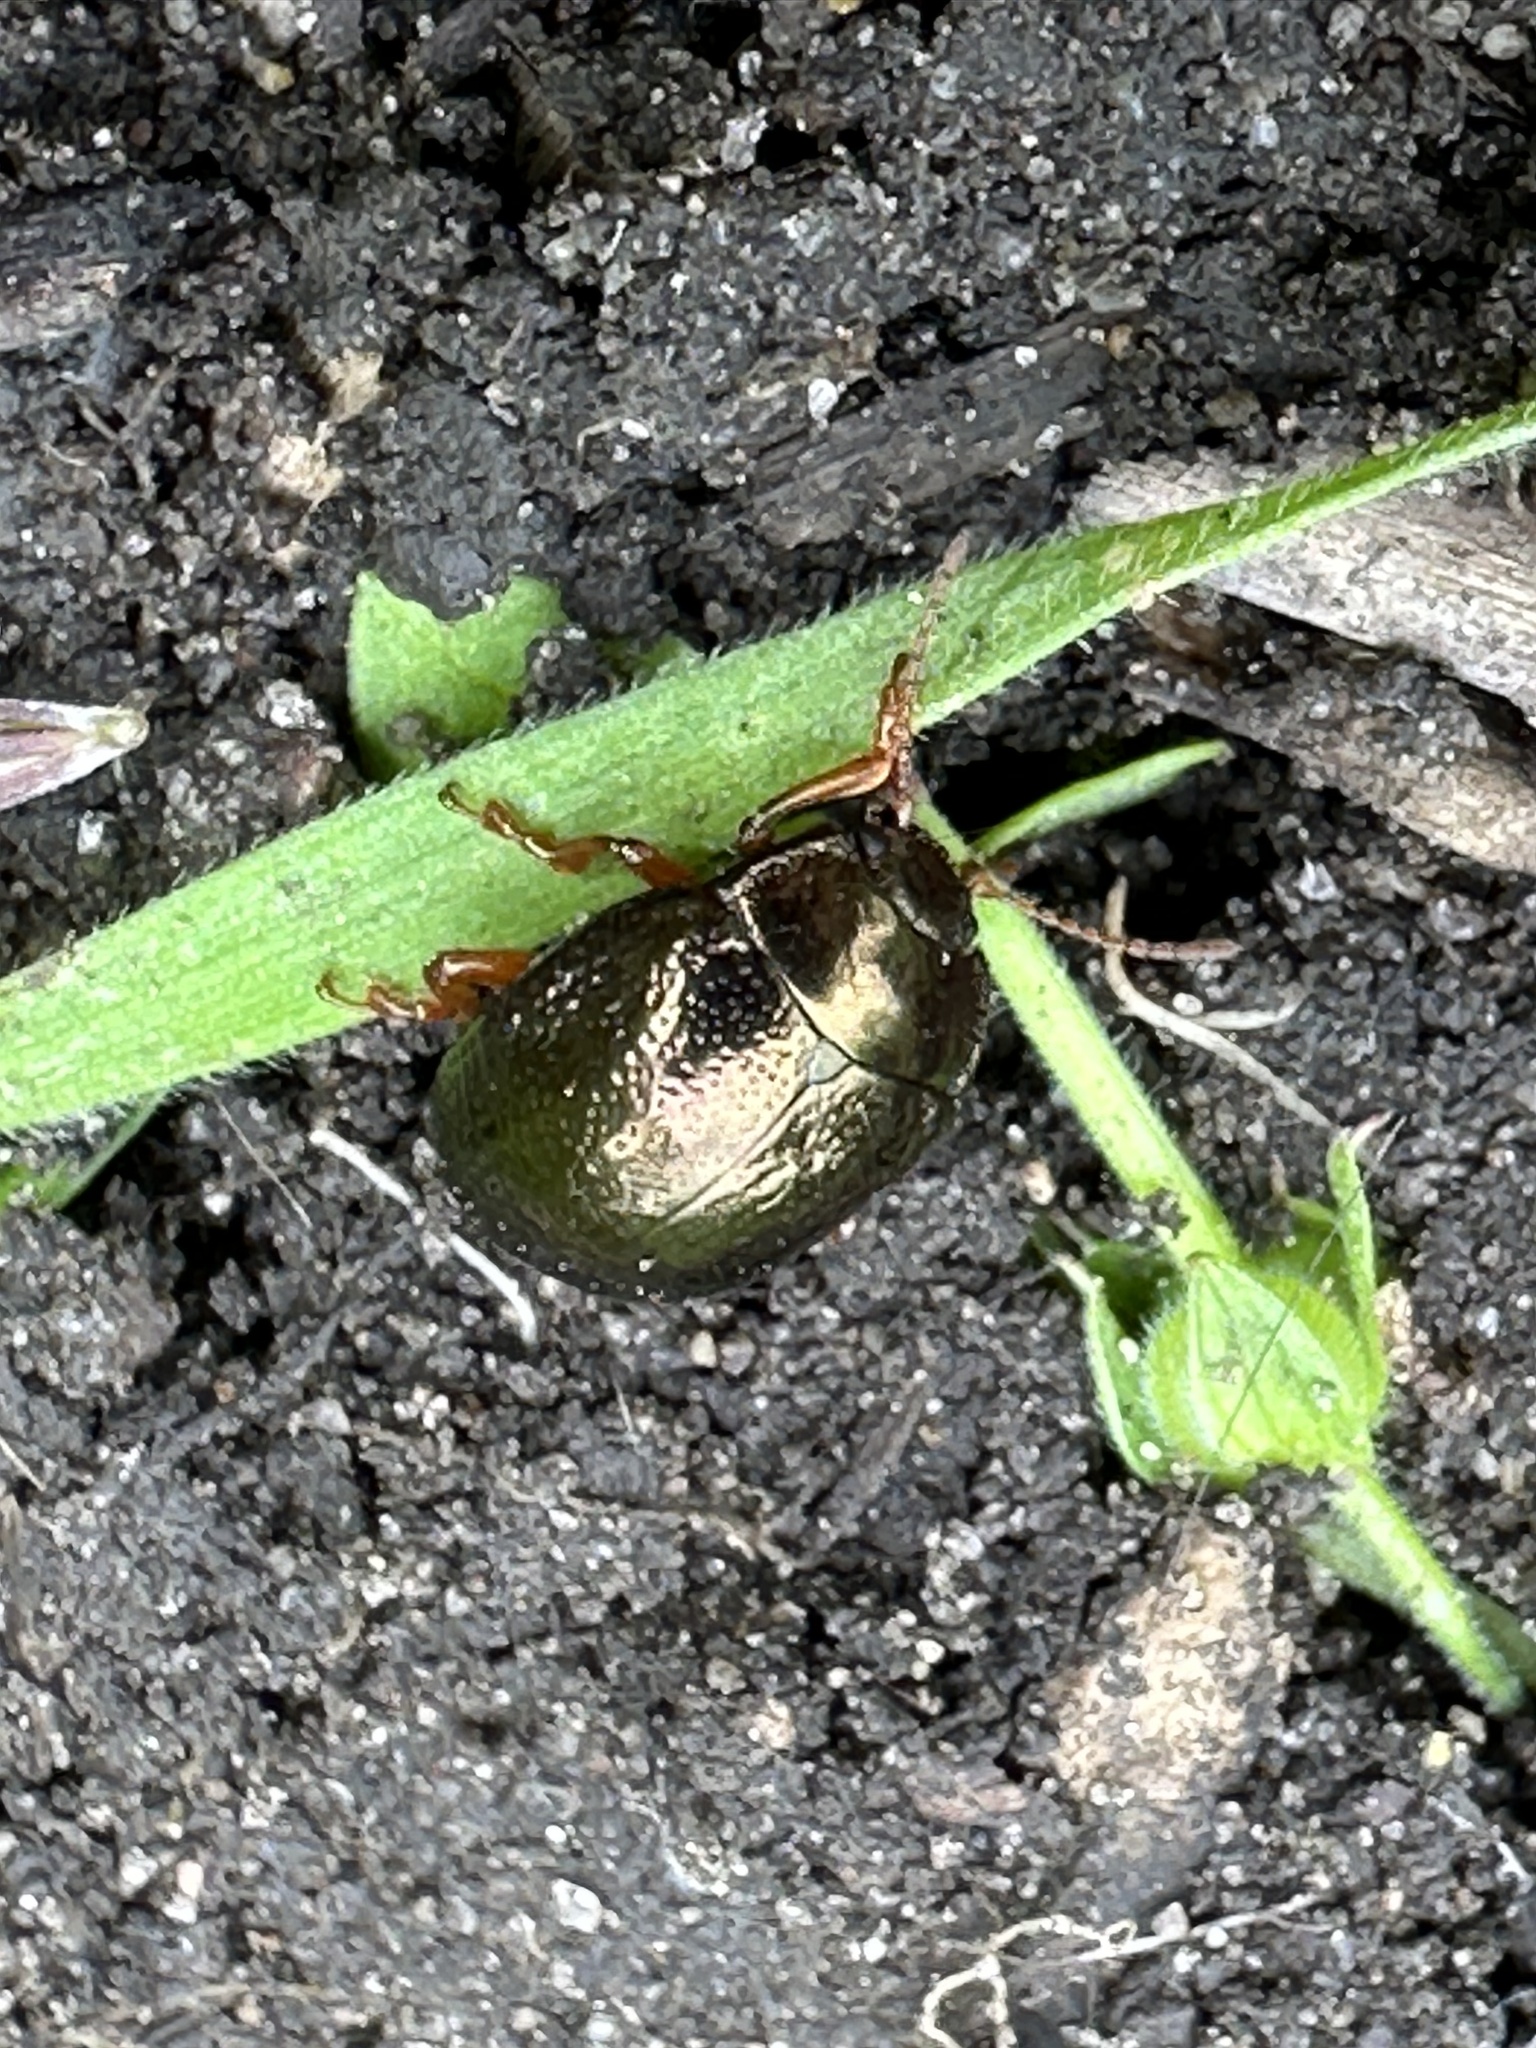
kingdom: Animalia
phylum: Arthropoda
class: Insecta
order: Coleoptera
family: Chrysomelidae
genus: Chrysolina
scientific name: Chrysolina bankii
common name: Leaf beetle
